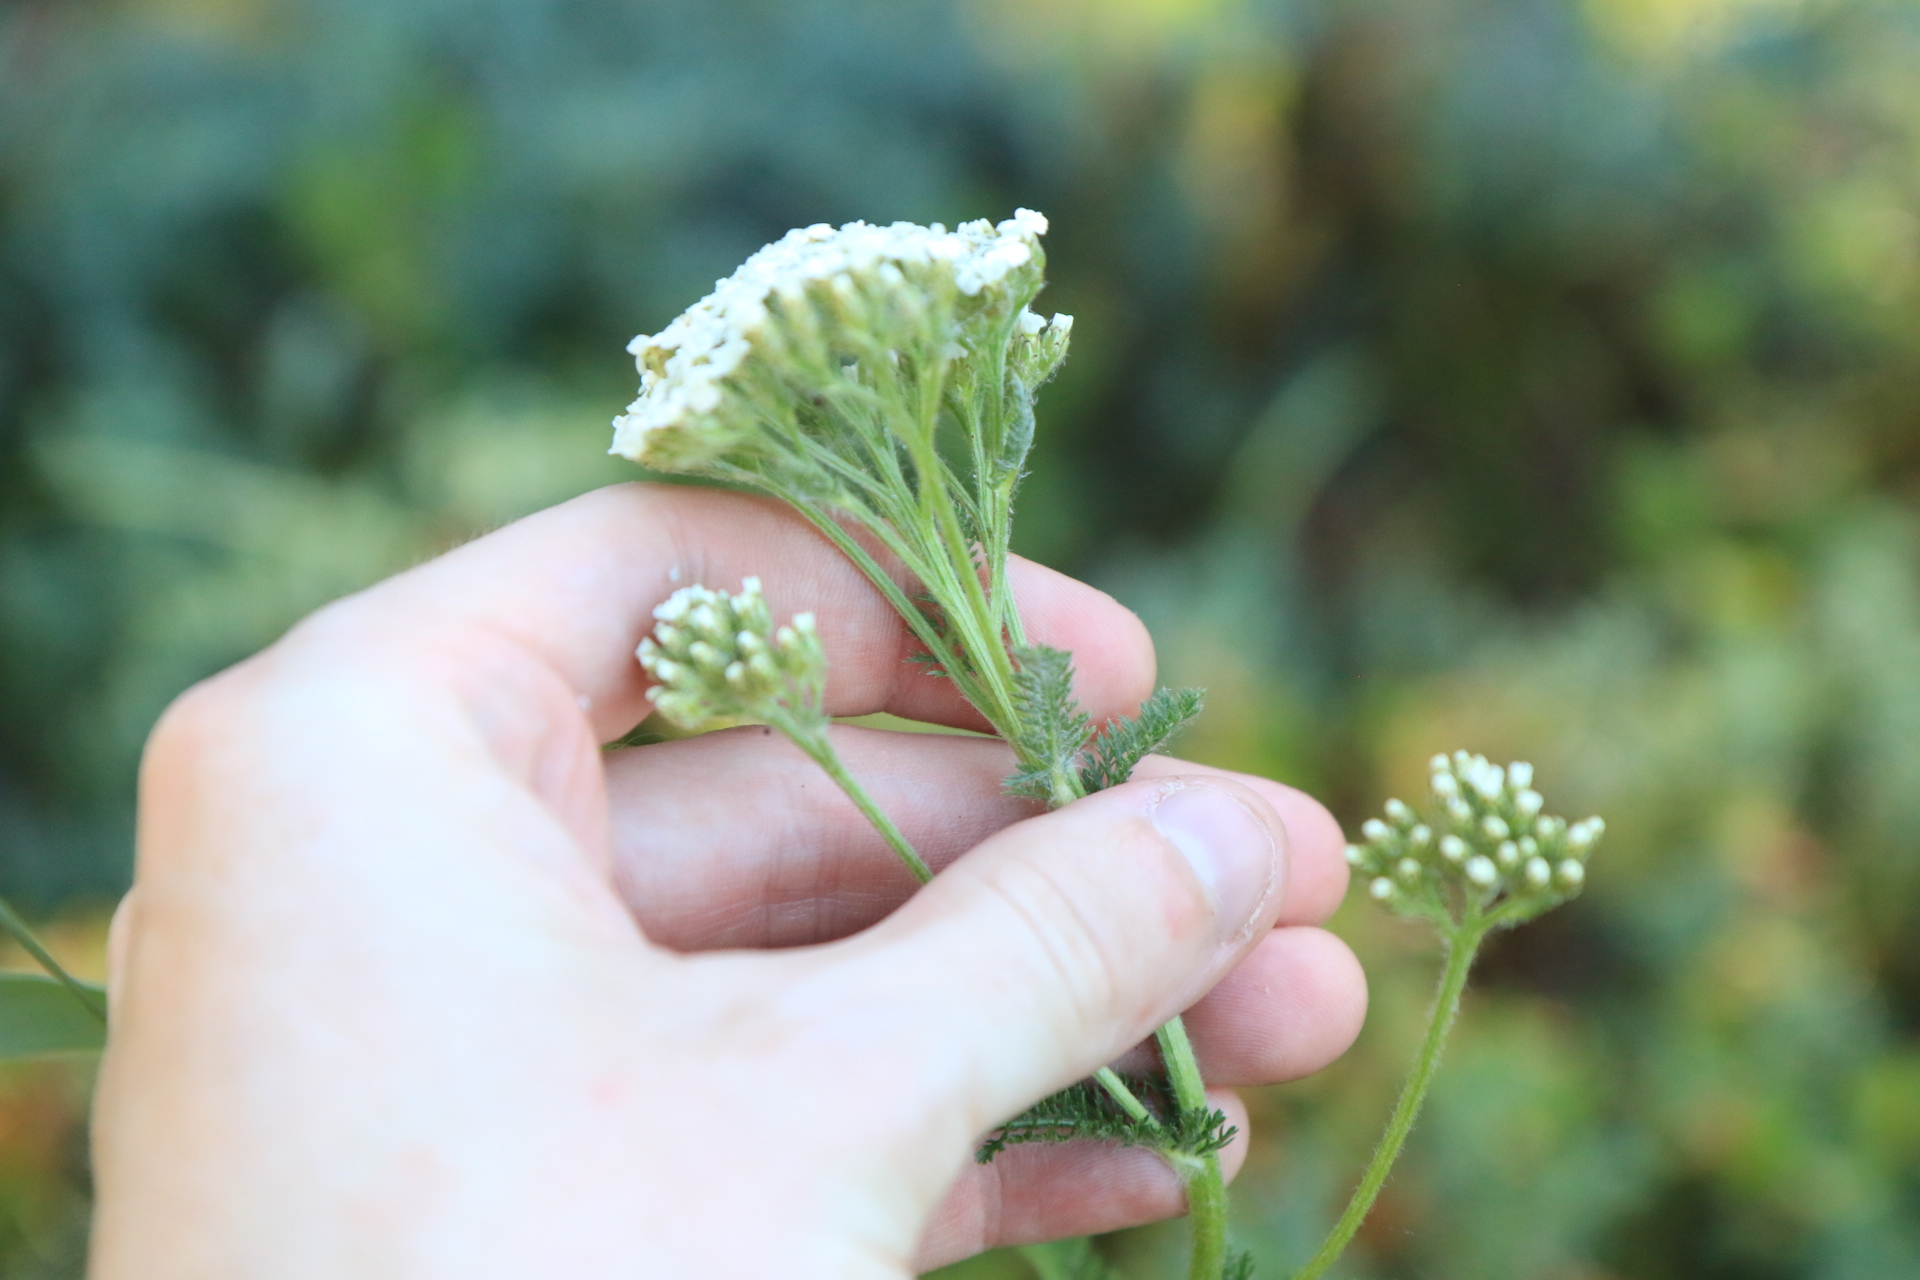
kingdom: Plantae
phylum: Tracheophyta
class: Magnoliopsida
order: Asterales
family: Asteraceae
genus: Achillea
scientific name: Achillea millefolium
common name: Yarrow
